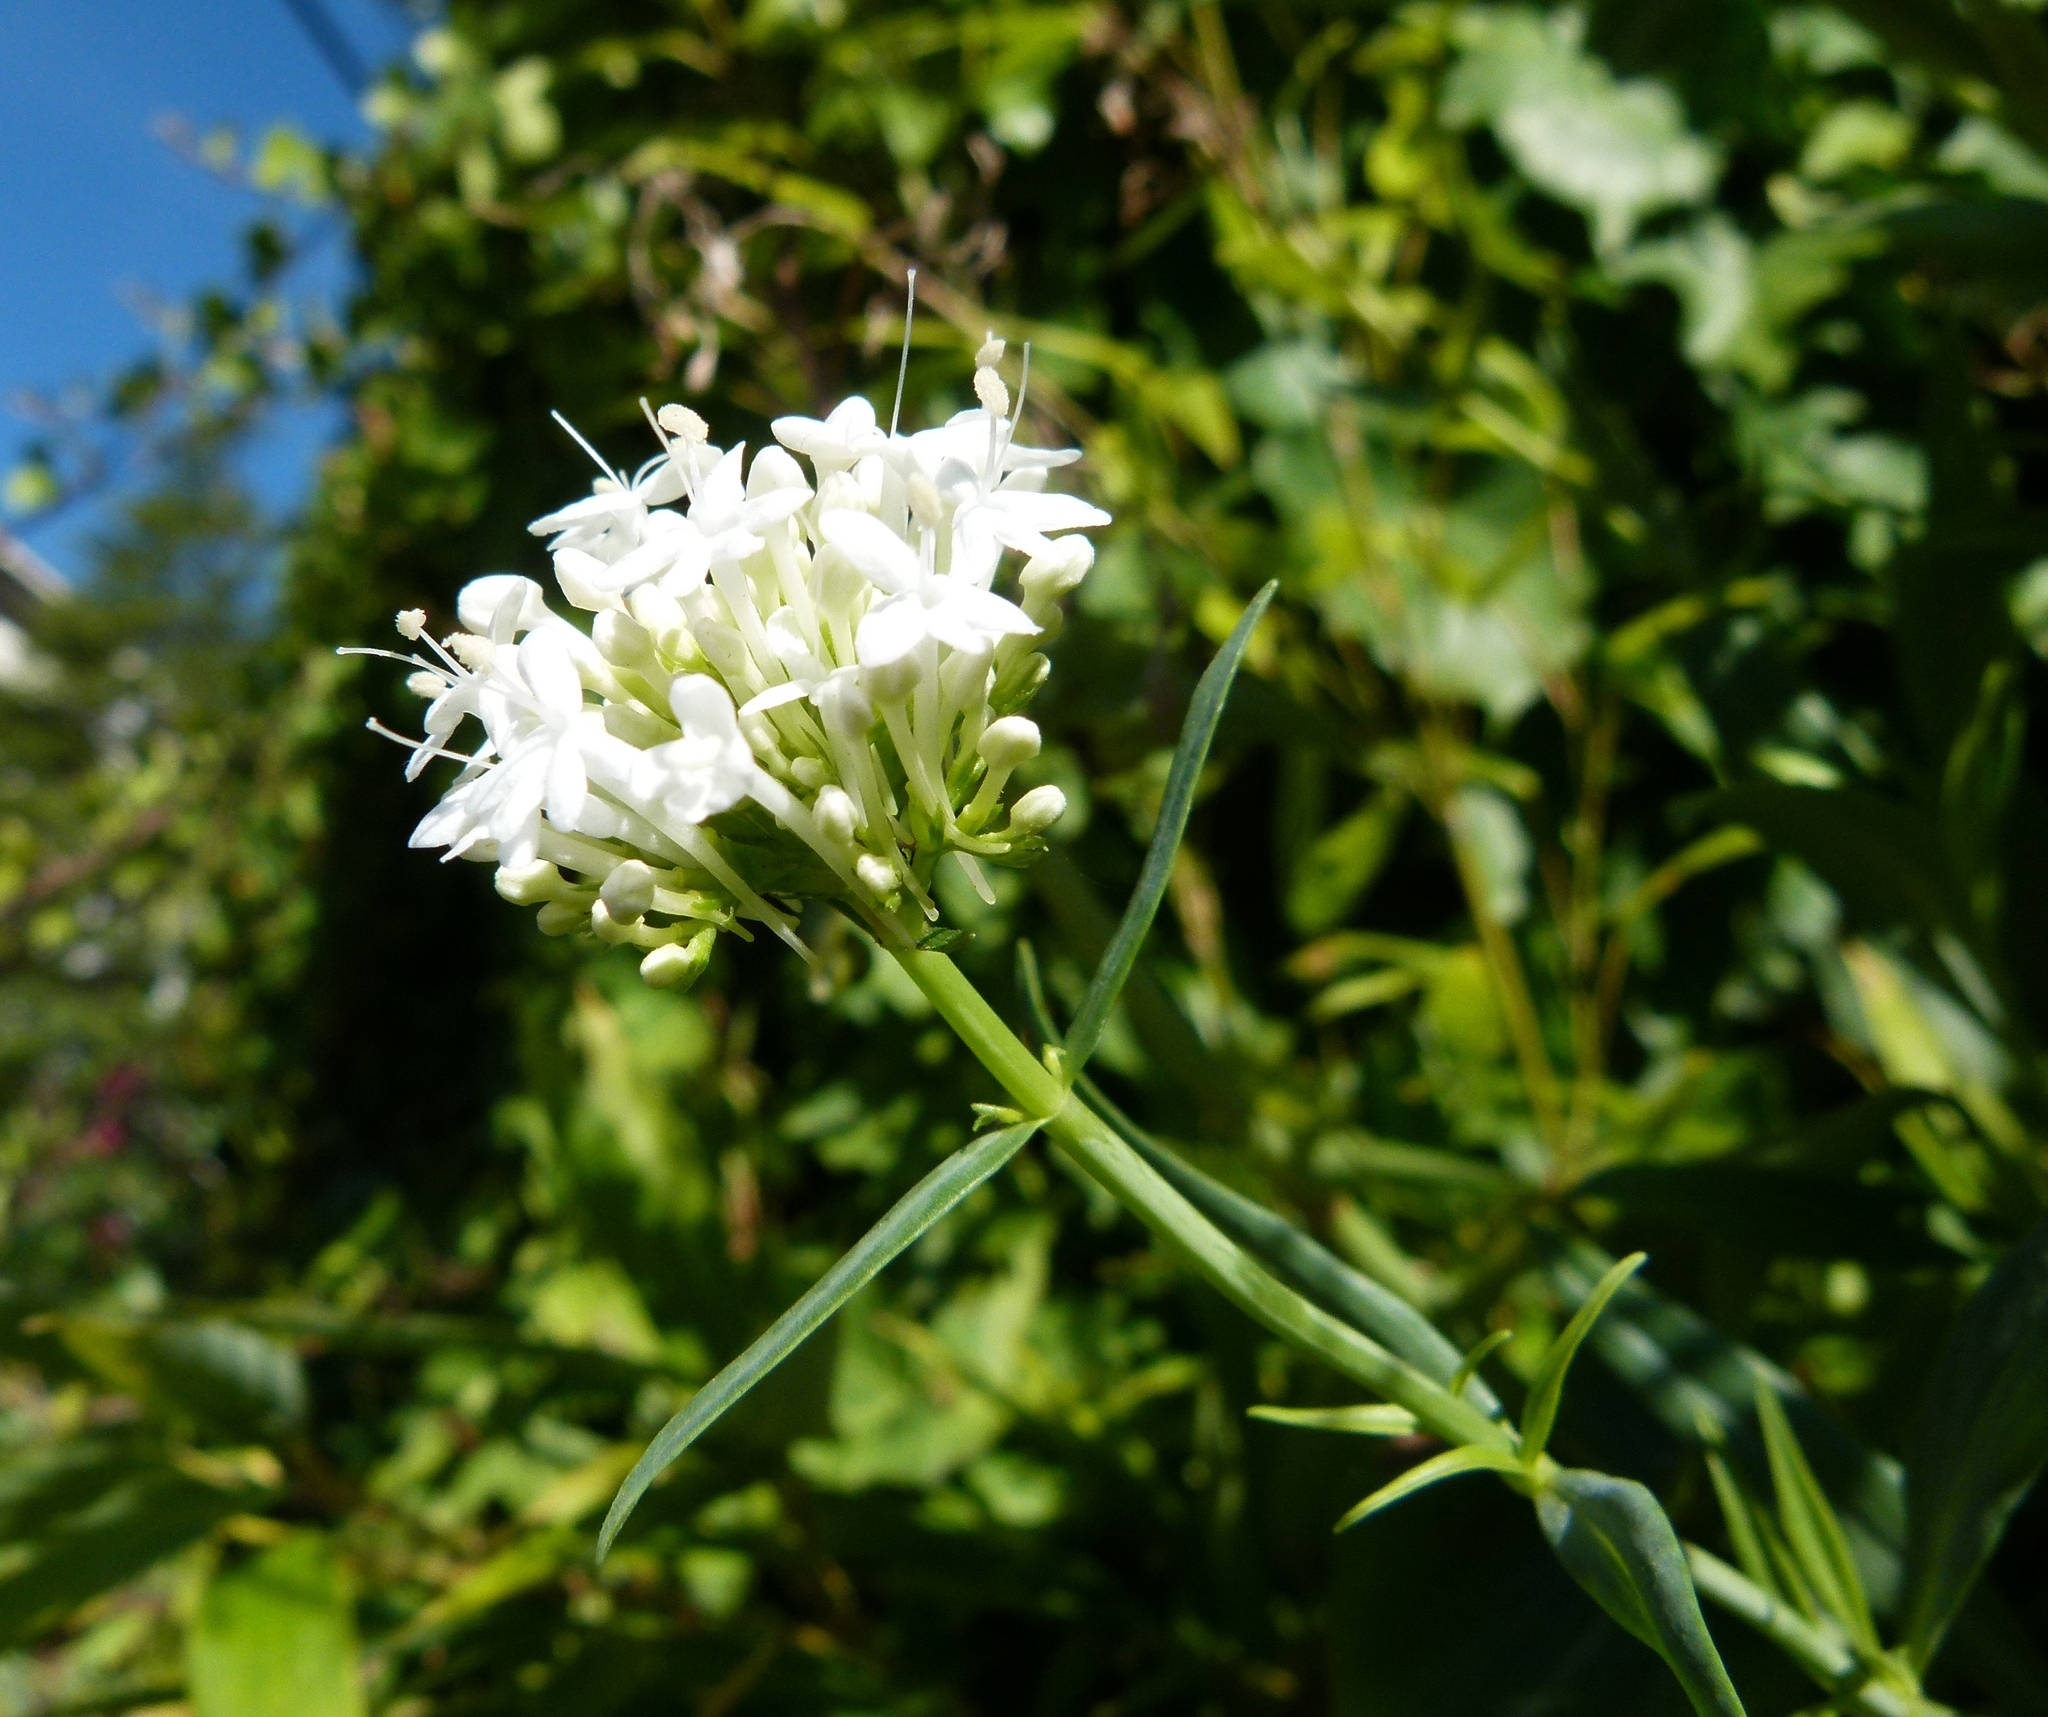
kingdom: Plantae
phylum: Tracheophyta
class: Magnoliopsida
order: Dipsacales
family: Caprifoliaceae
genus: Centranthus
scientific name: Centranthus ruber
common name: Red valerian
